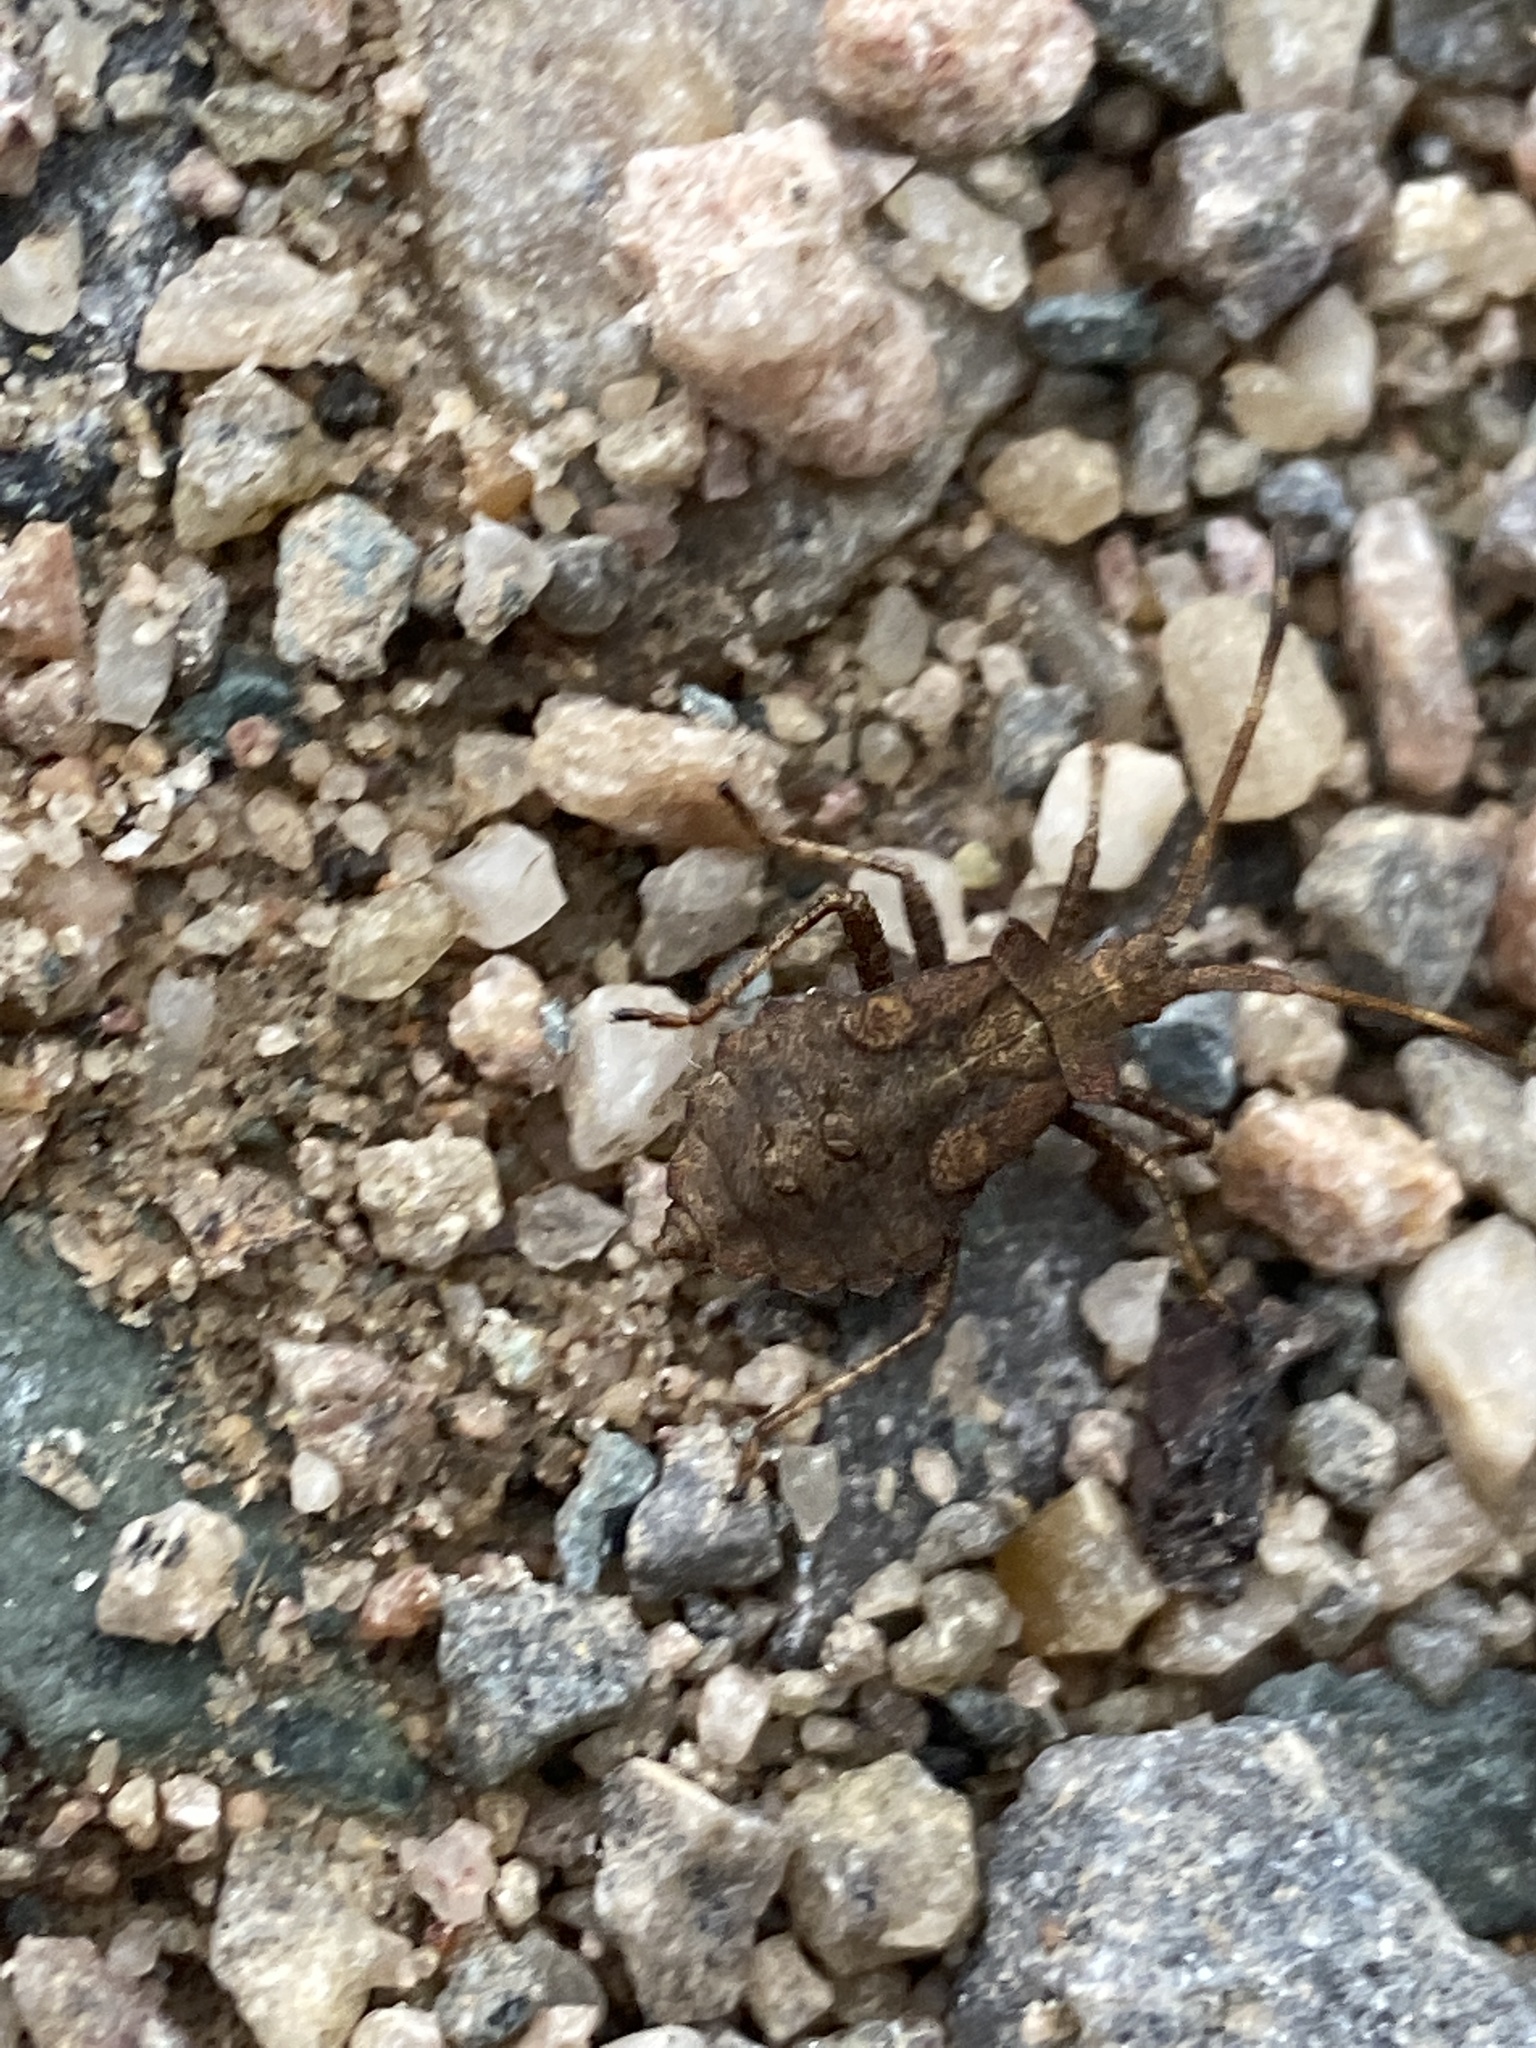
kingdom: Animalia
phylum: Arthropoda
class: Insecta
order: Hemiptera
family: Coreidae
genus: Coreus
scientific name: Coreus marginatus
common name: Dock bug
